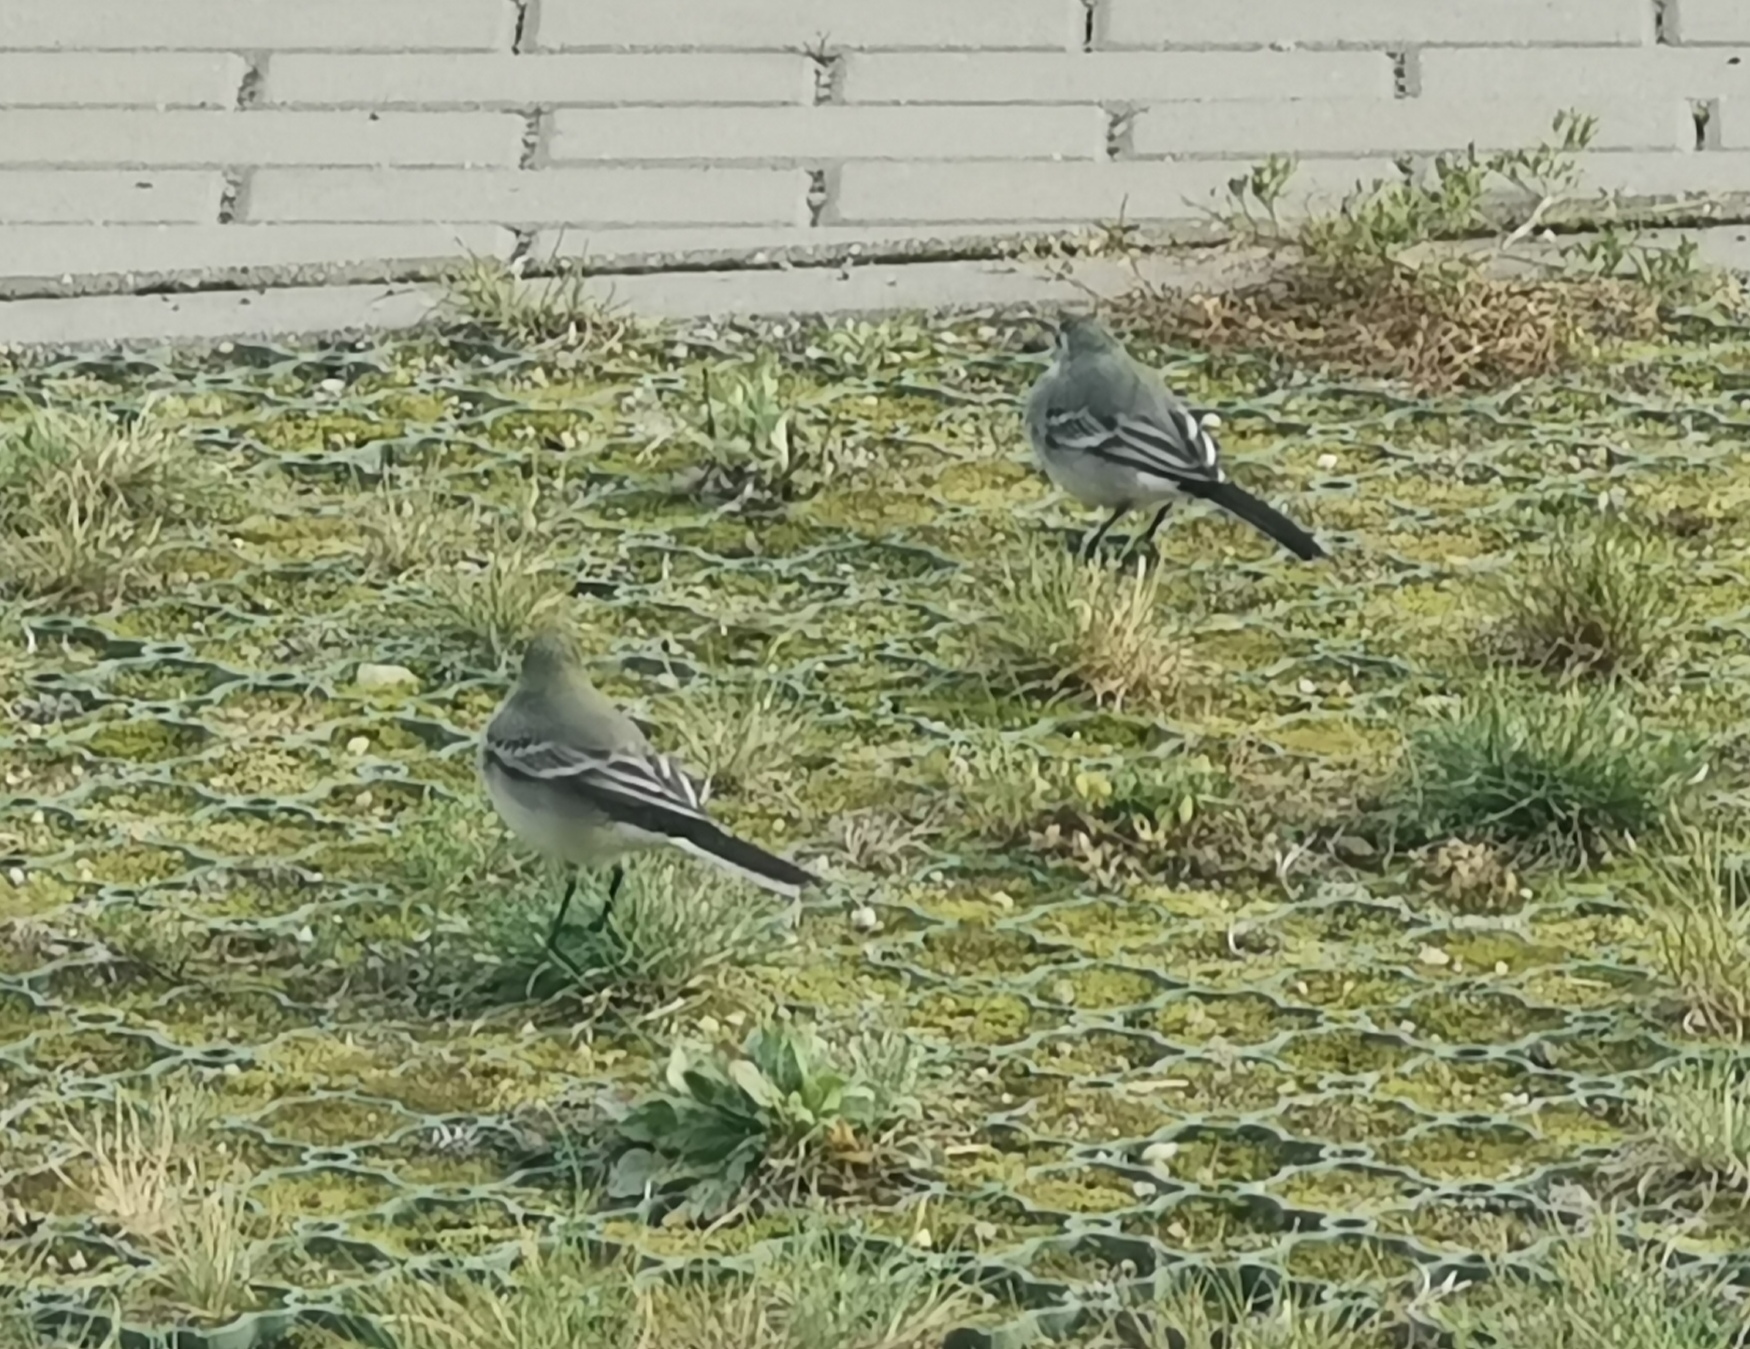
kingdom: Animalia
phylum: Chordata
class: Aves
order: Passeriformes
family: Motacillidae
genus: Motacilla
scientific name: Motacilla alba
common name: White wagtail
